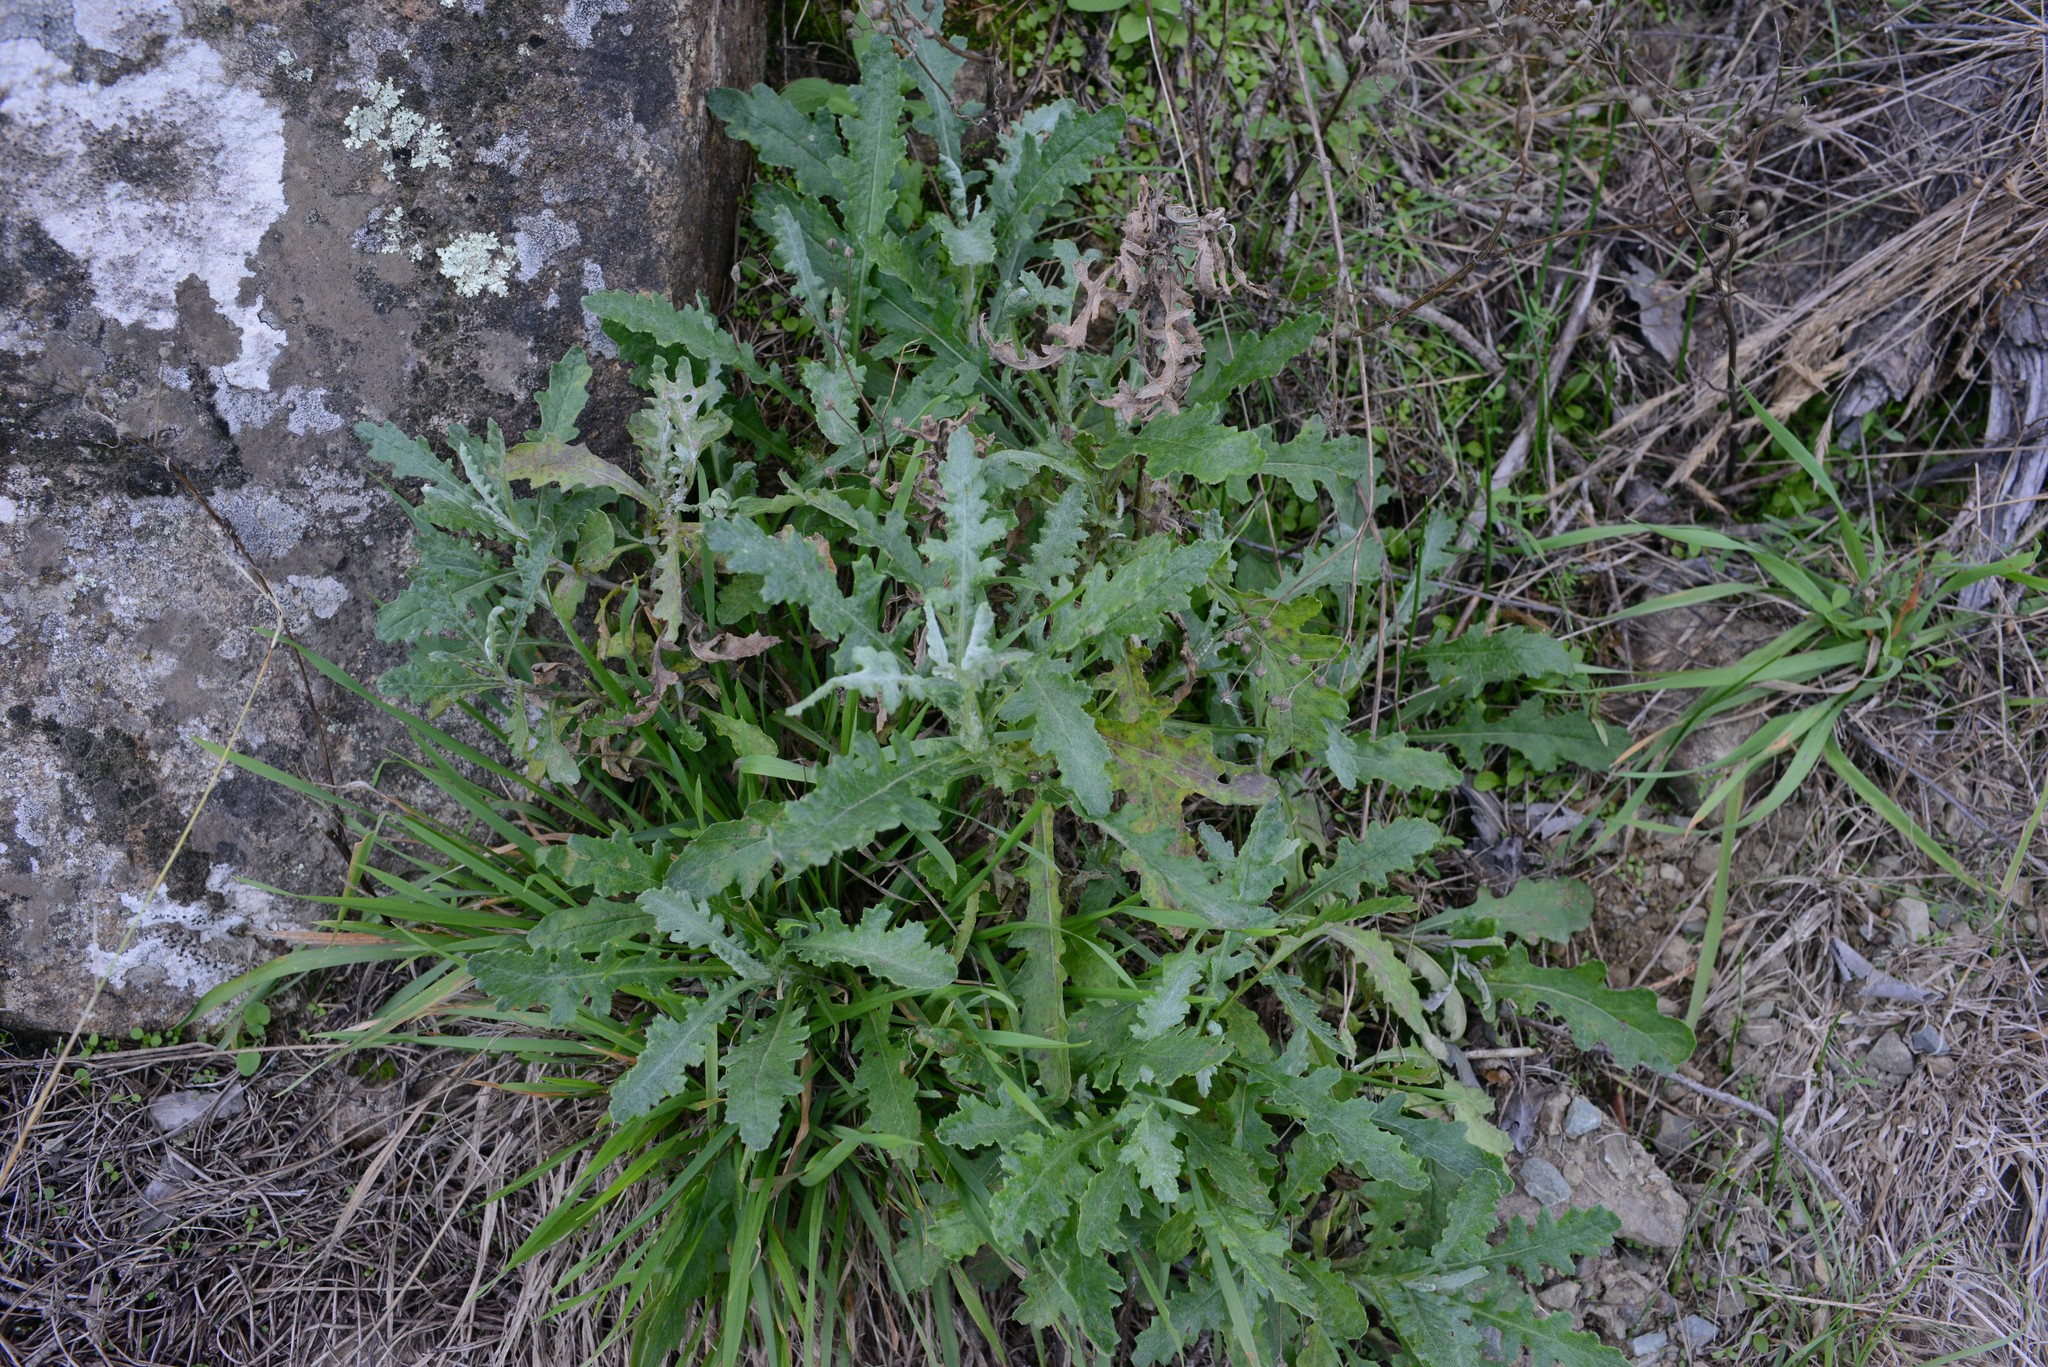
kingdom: Plantae
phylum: Tracheophyta
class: Magnoliopsida
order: Asterales
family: Asteraceae
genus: Senecio
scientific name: Senecio glomeratus
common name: Cutleaf burnweed
